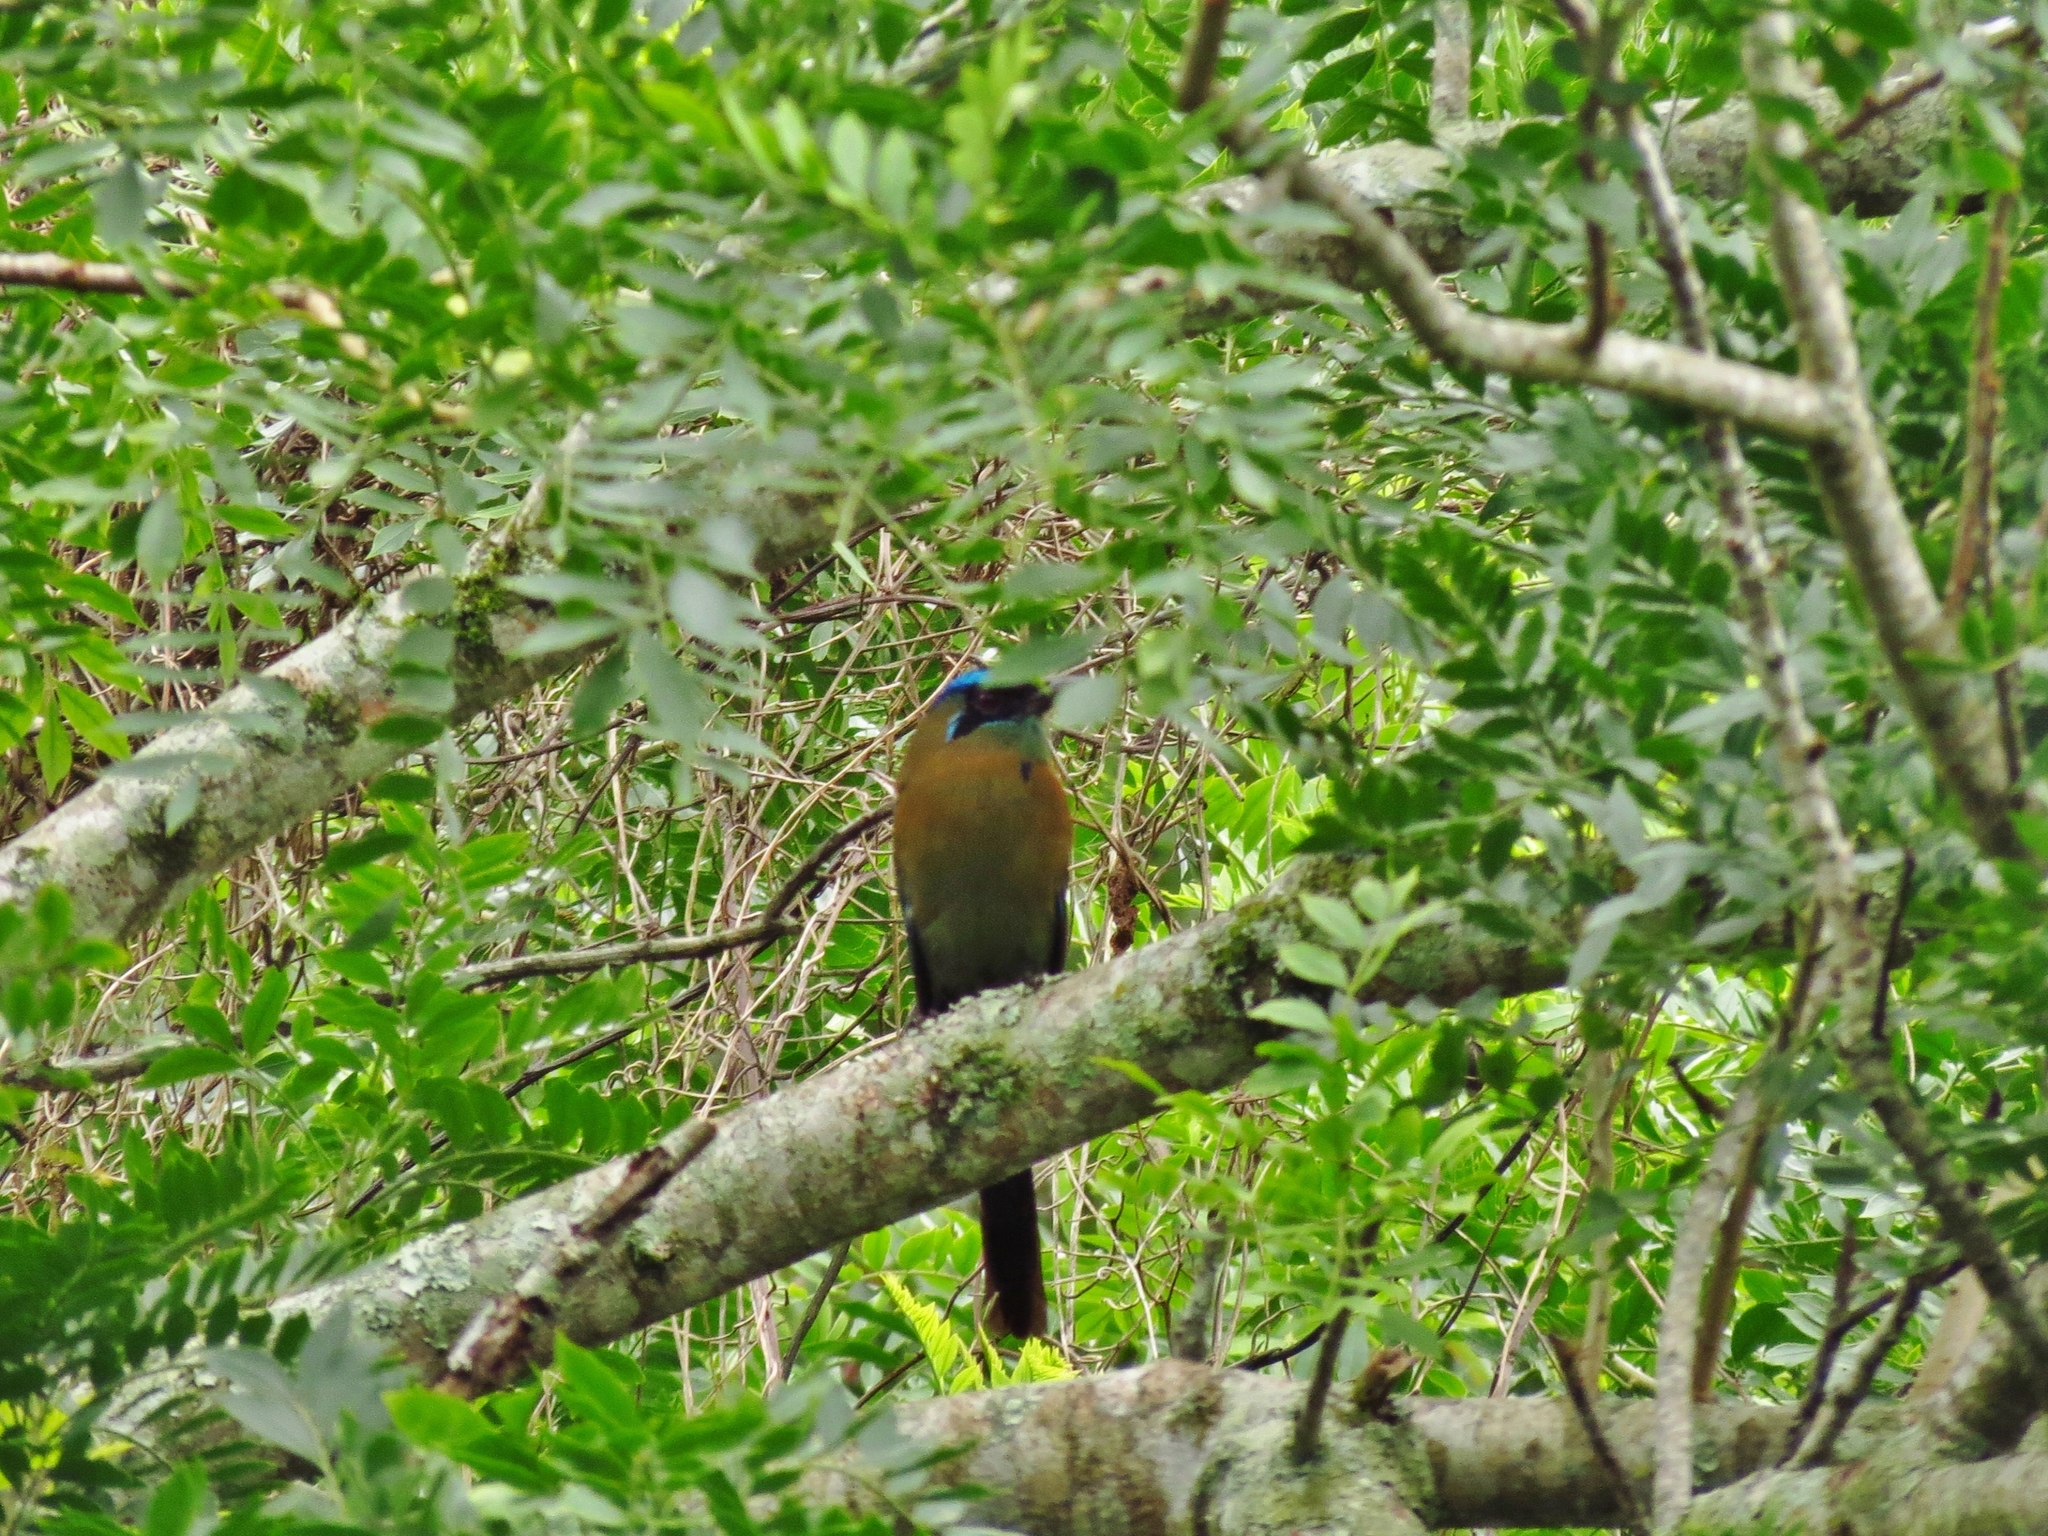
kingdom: Animalia
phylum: Chordata
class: Aves
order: Coraciiformes
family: Momotidae
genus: Momotus
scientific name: Momotus lessonii
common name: Lesson's motmot
